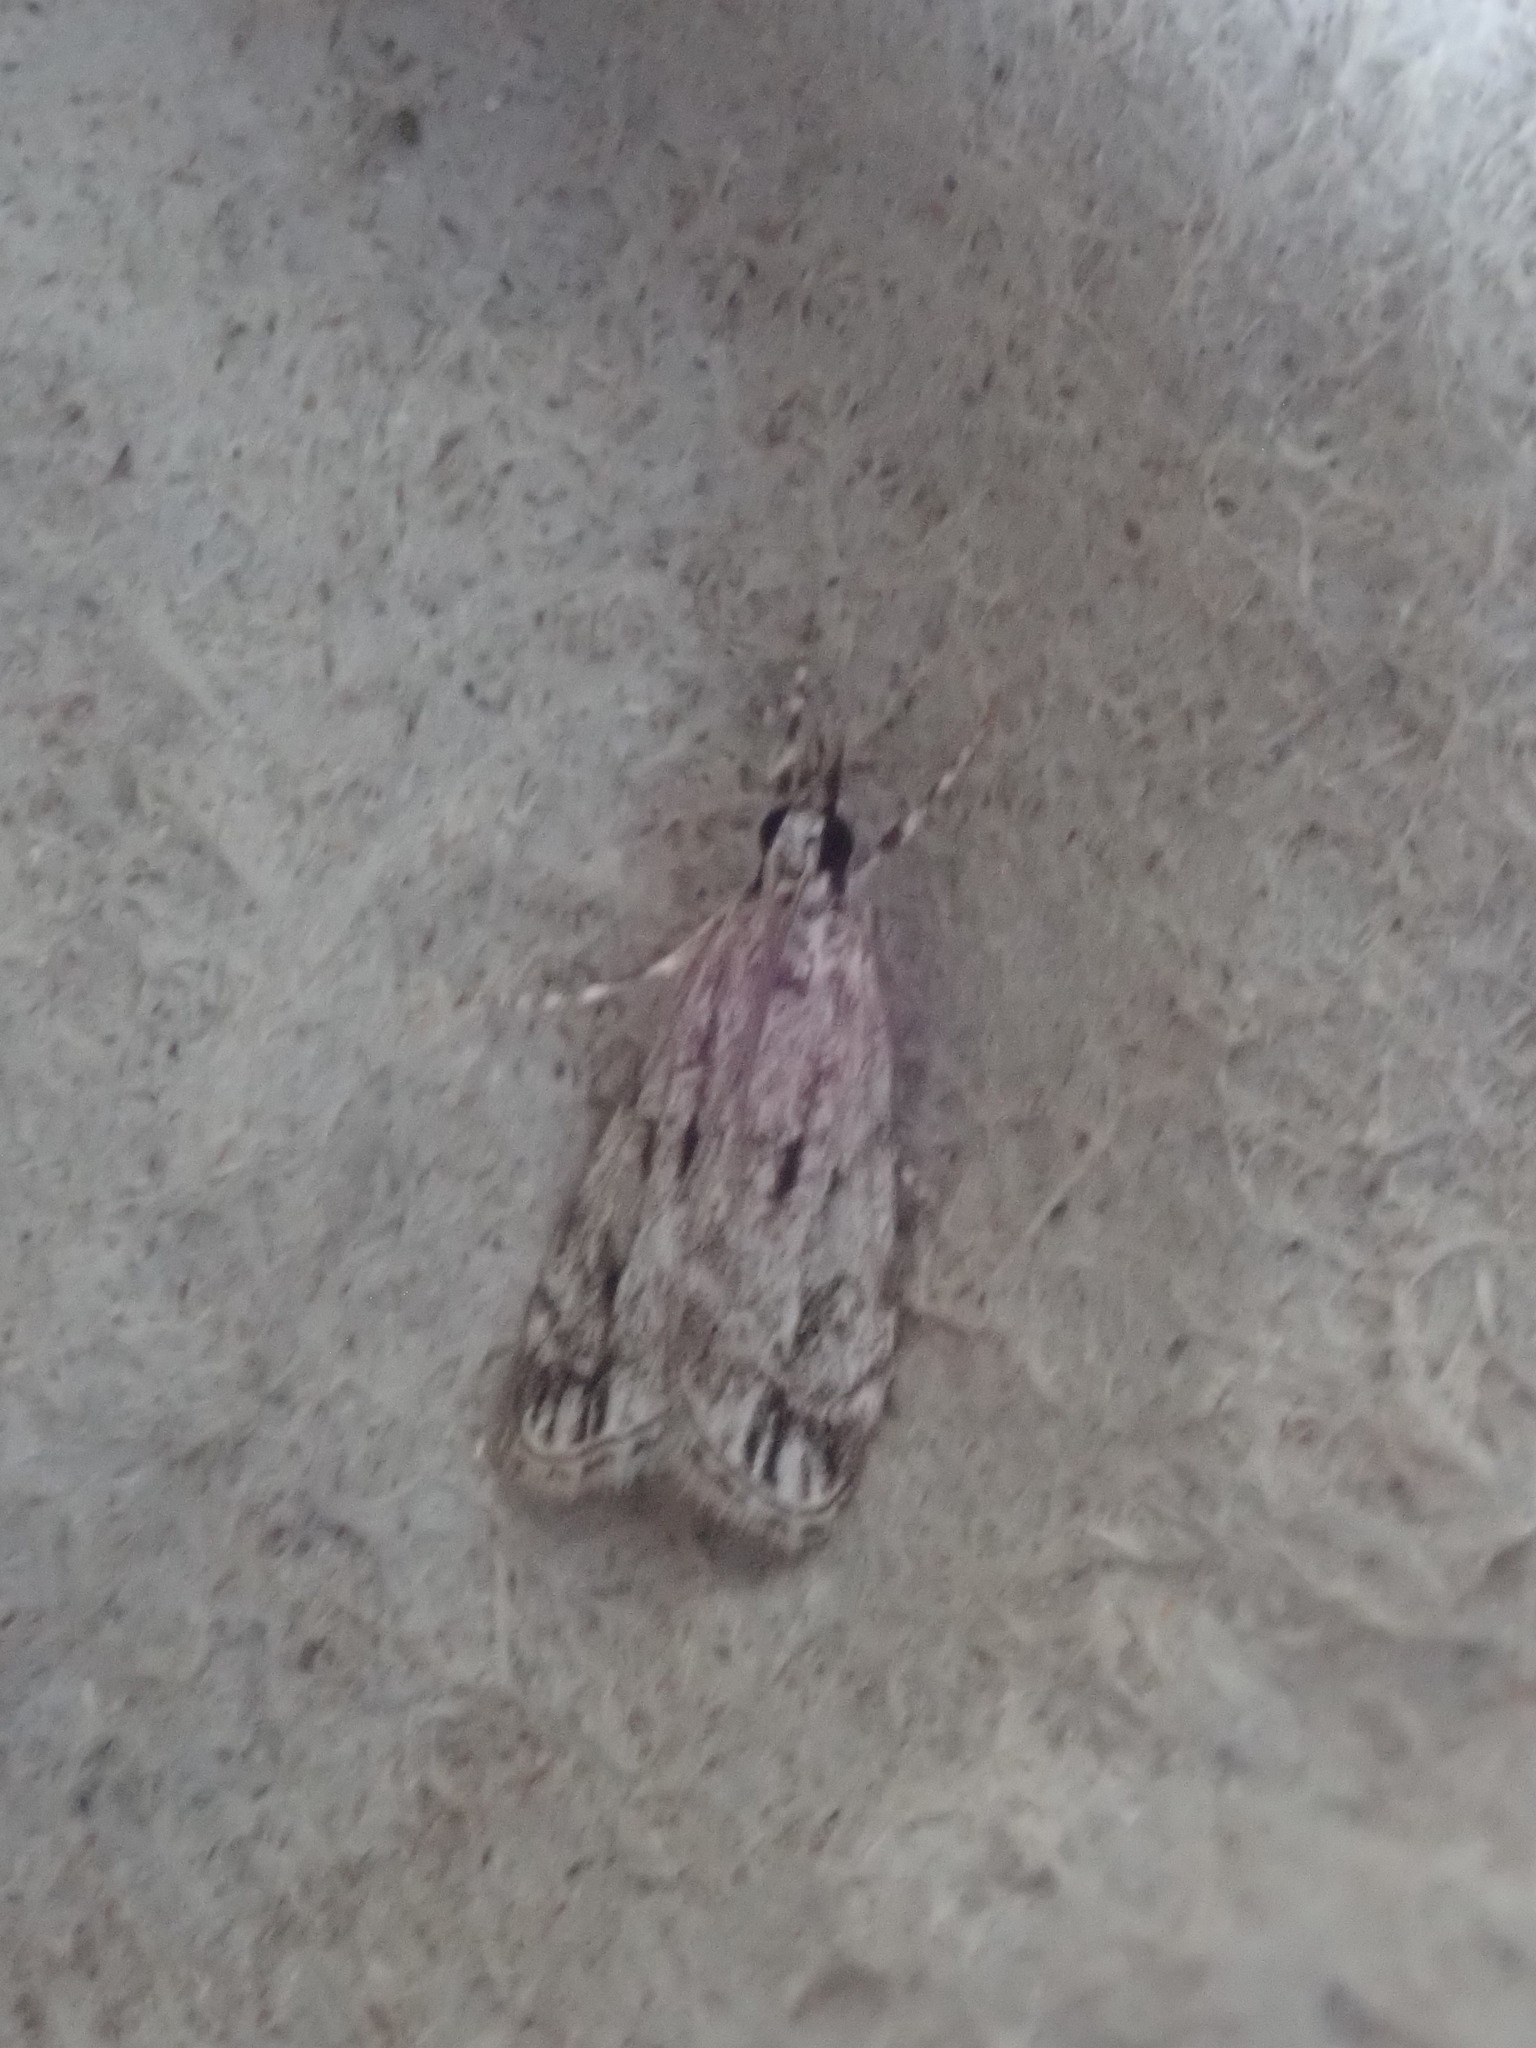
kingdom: Animalia
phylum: Arthropoda
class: Insecta
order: Lepidoptera
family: Crambidae
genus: Eudonia
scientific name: Eudonia strigalis
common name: Striped eudonia moth
